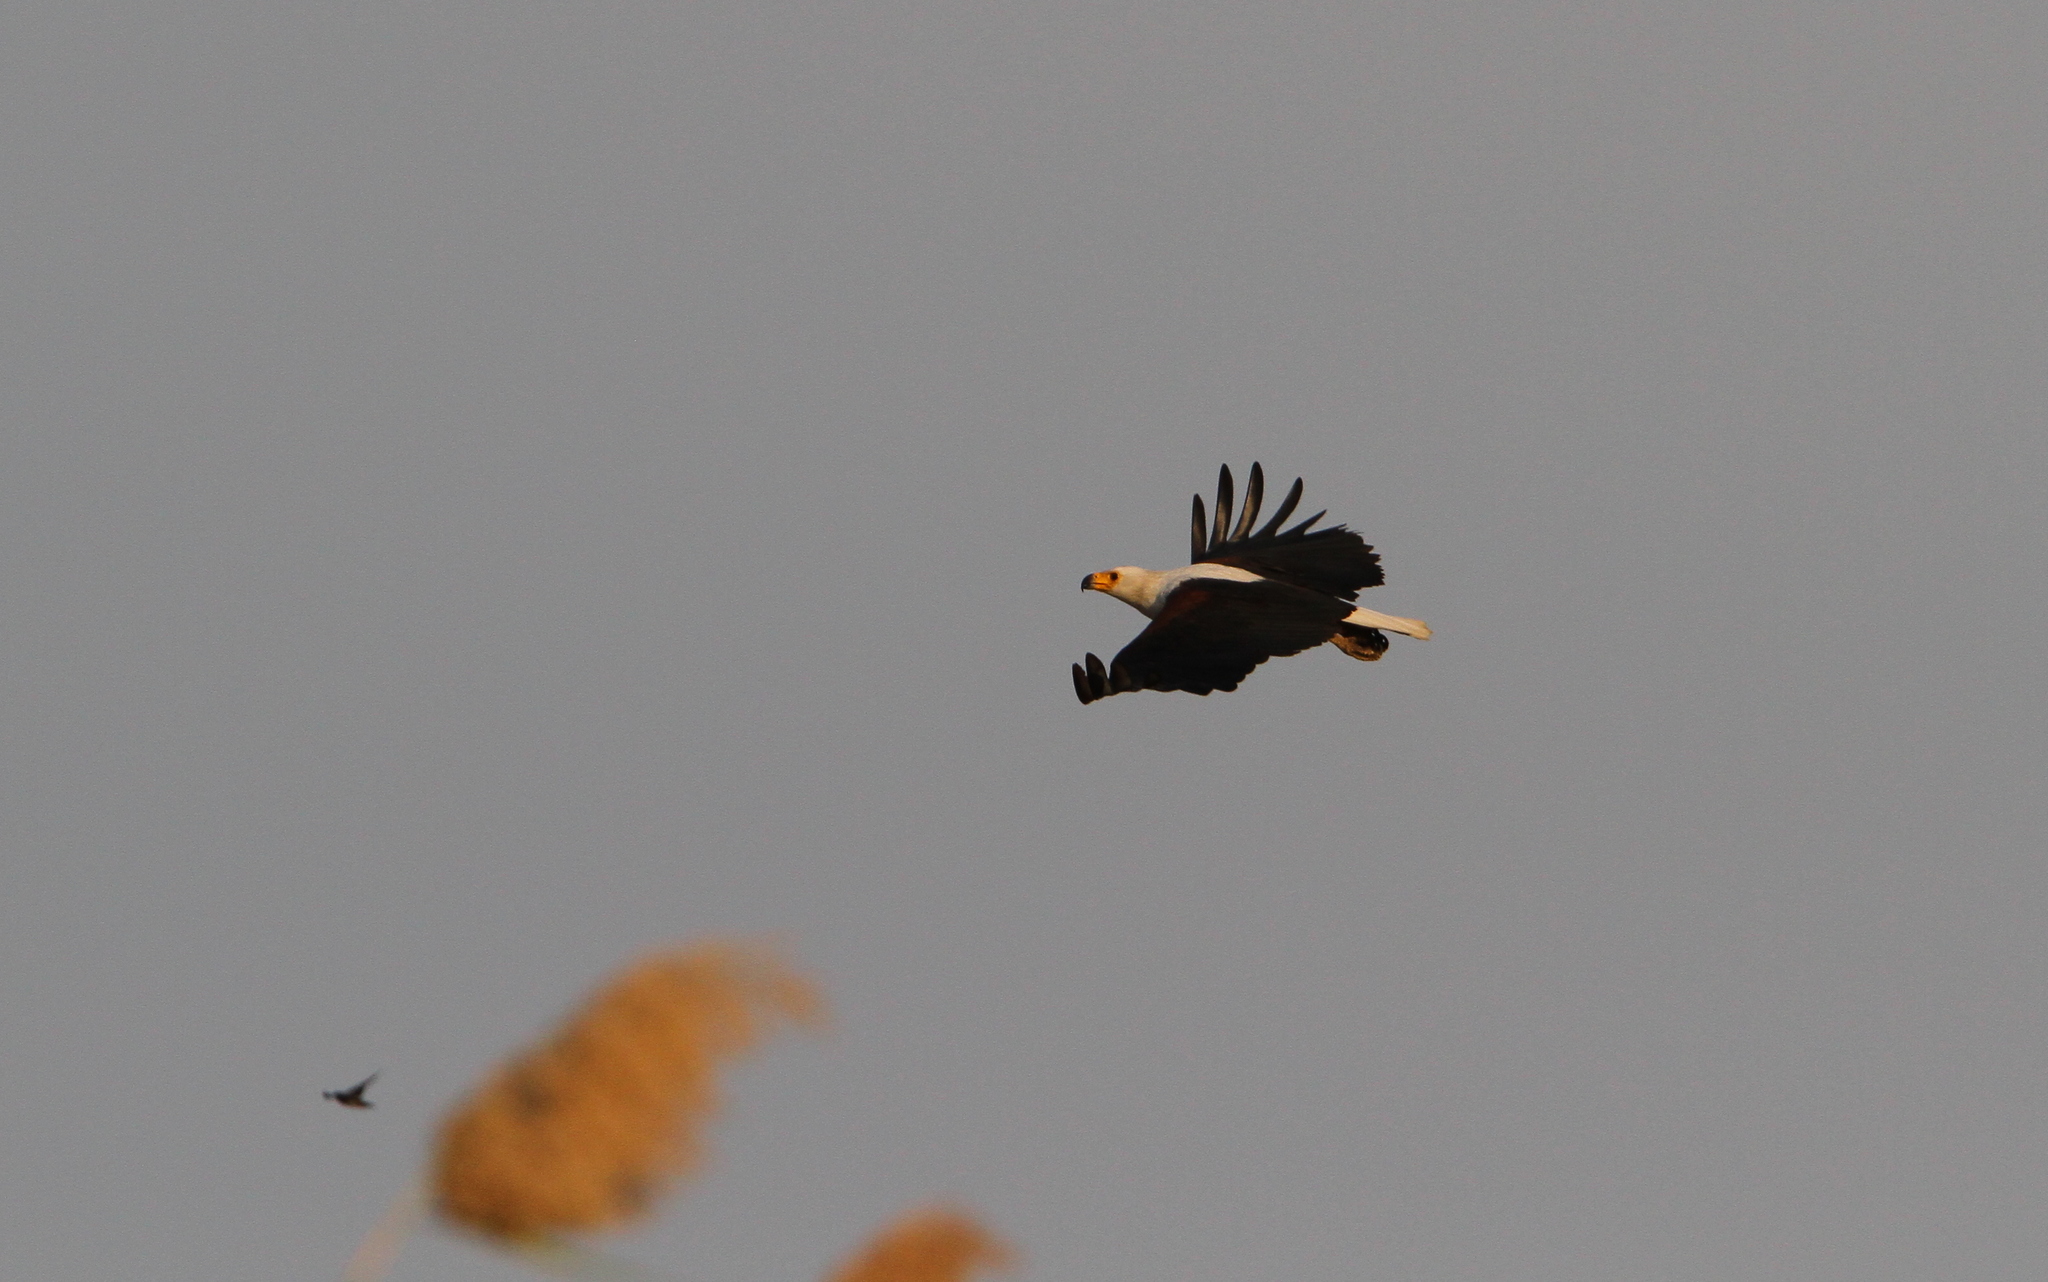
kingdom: Animalia
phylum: Chordata
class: Aves
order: Accipitriformes
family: Accipitridae
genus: Haliaeetus
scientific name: Haliaeetus vocifer
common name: African fish eagle
